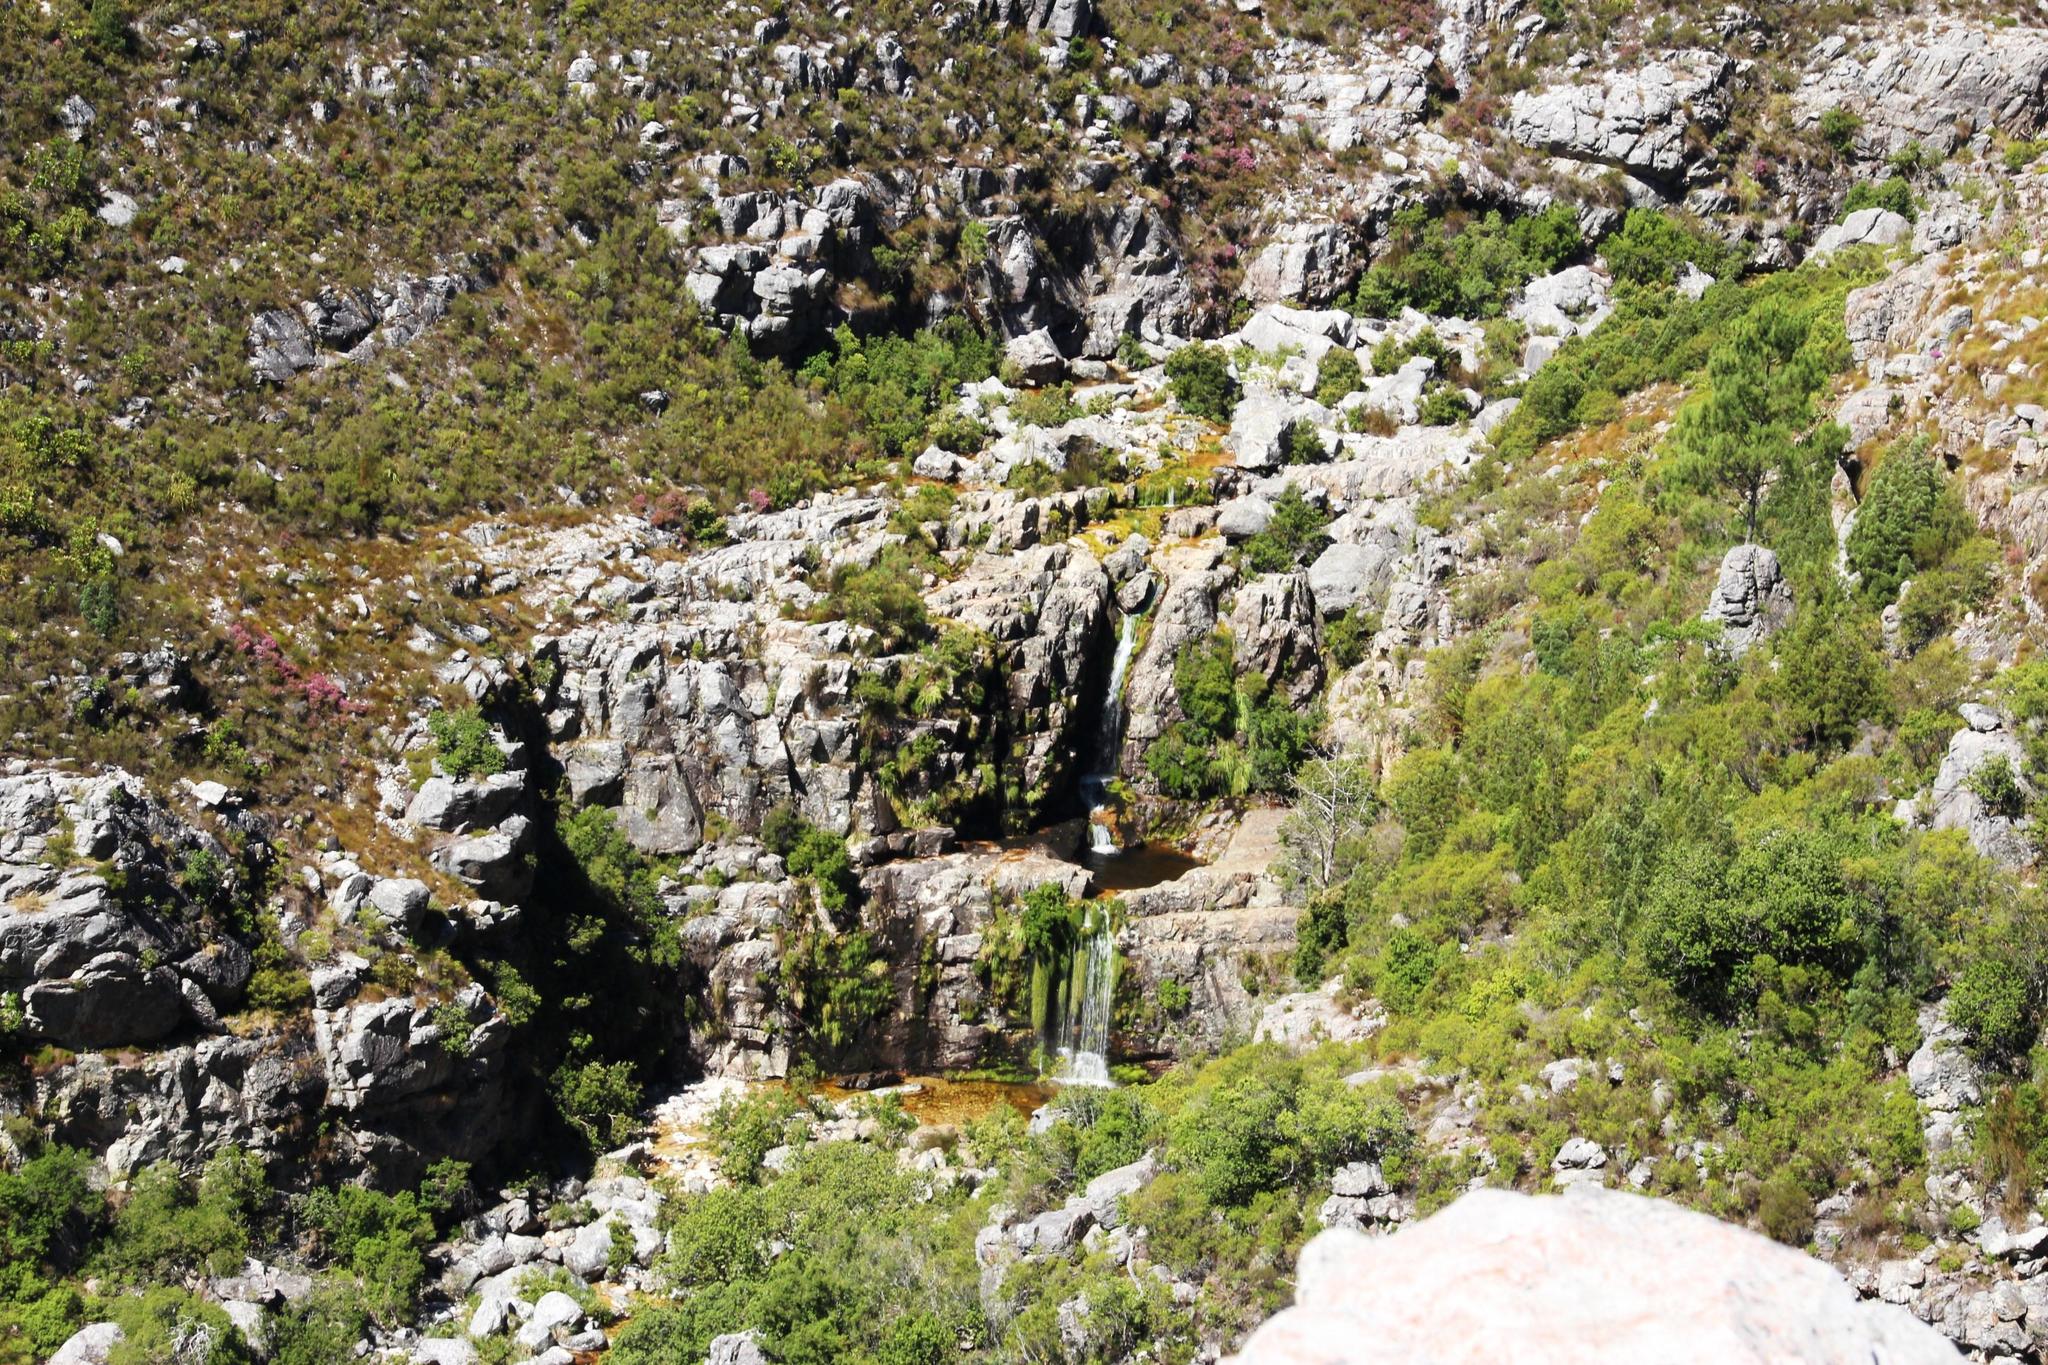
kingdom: Plantae
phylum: Tracheophyta
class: Liliopsida
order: Poales
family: Cyperaceae
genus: Isolepis
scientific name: Isolepis digitata
